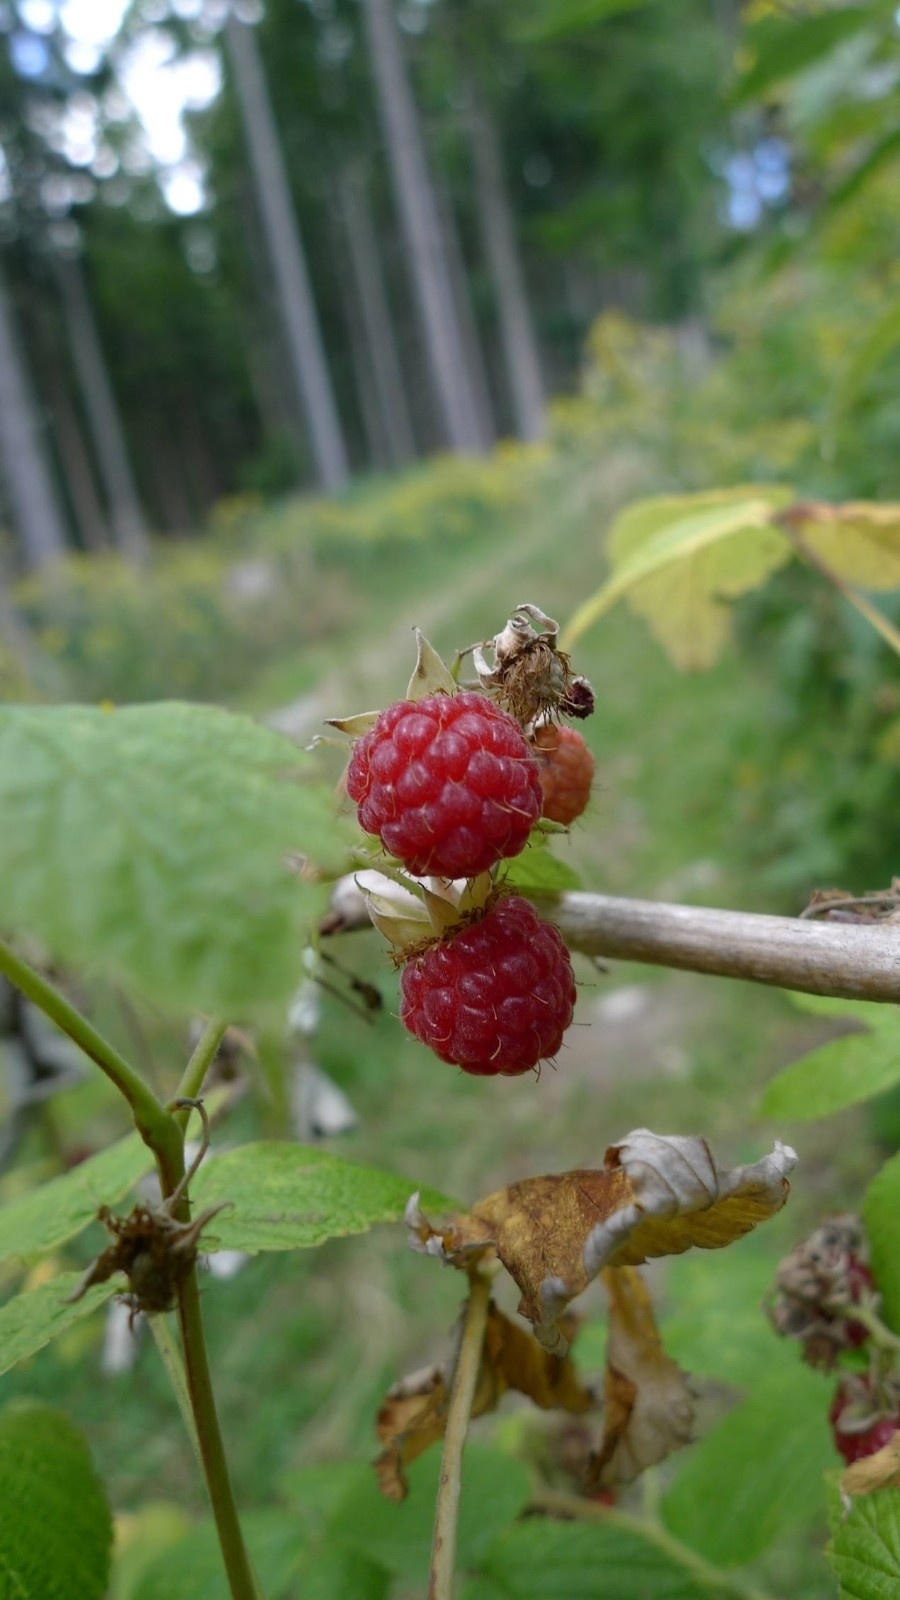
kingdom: Plantae
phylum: Tracheophyta
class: Magnoliopsida
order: Rosales
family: Rosaceae
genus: Rubus
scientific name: Rubus idaeus
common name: Raspberry
